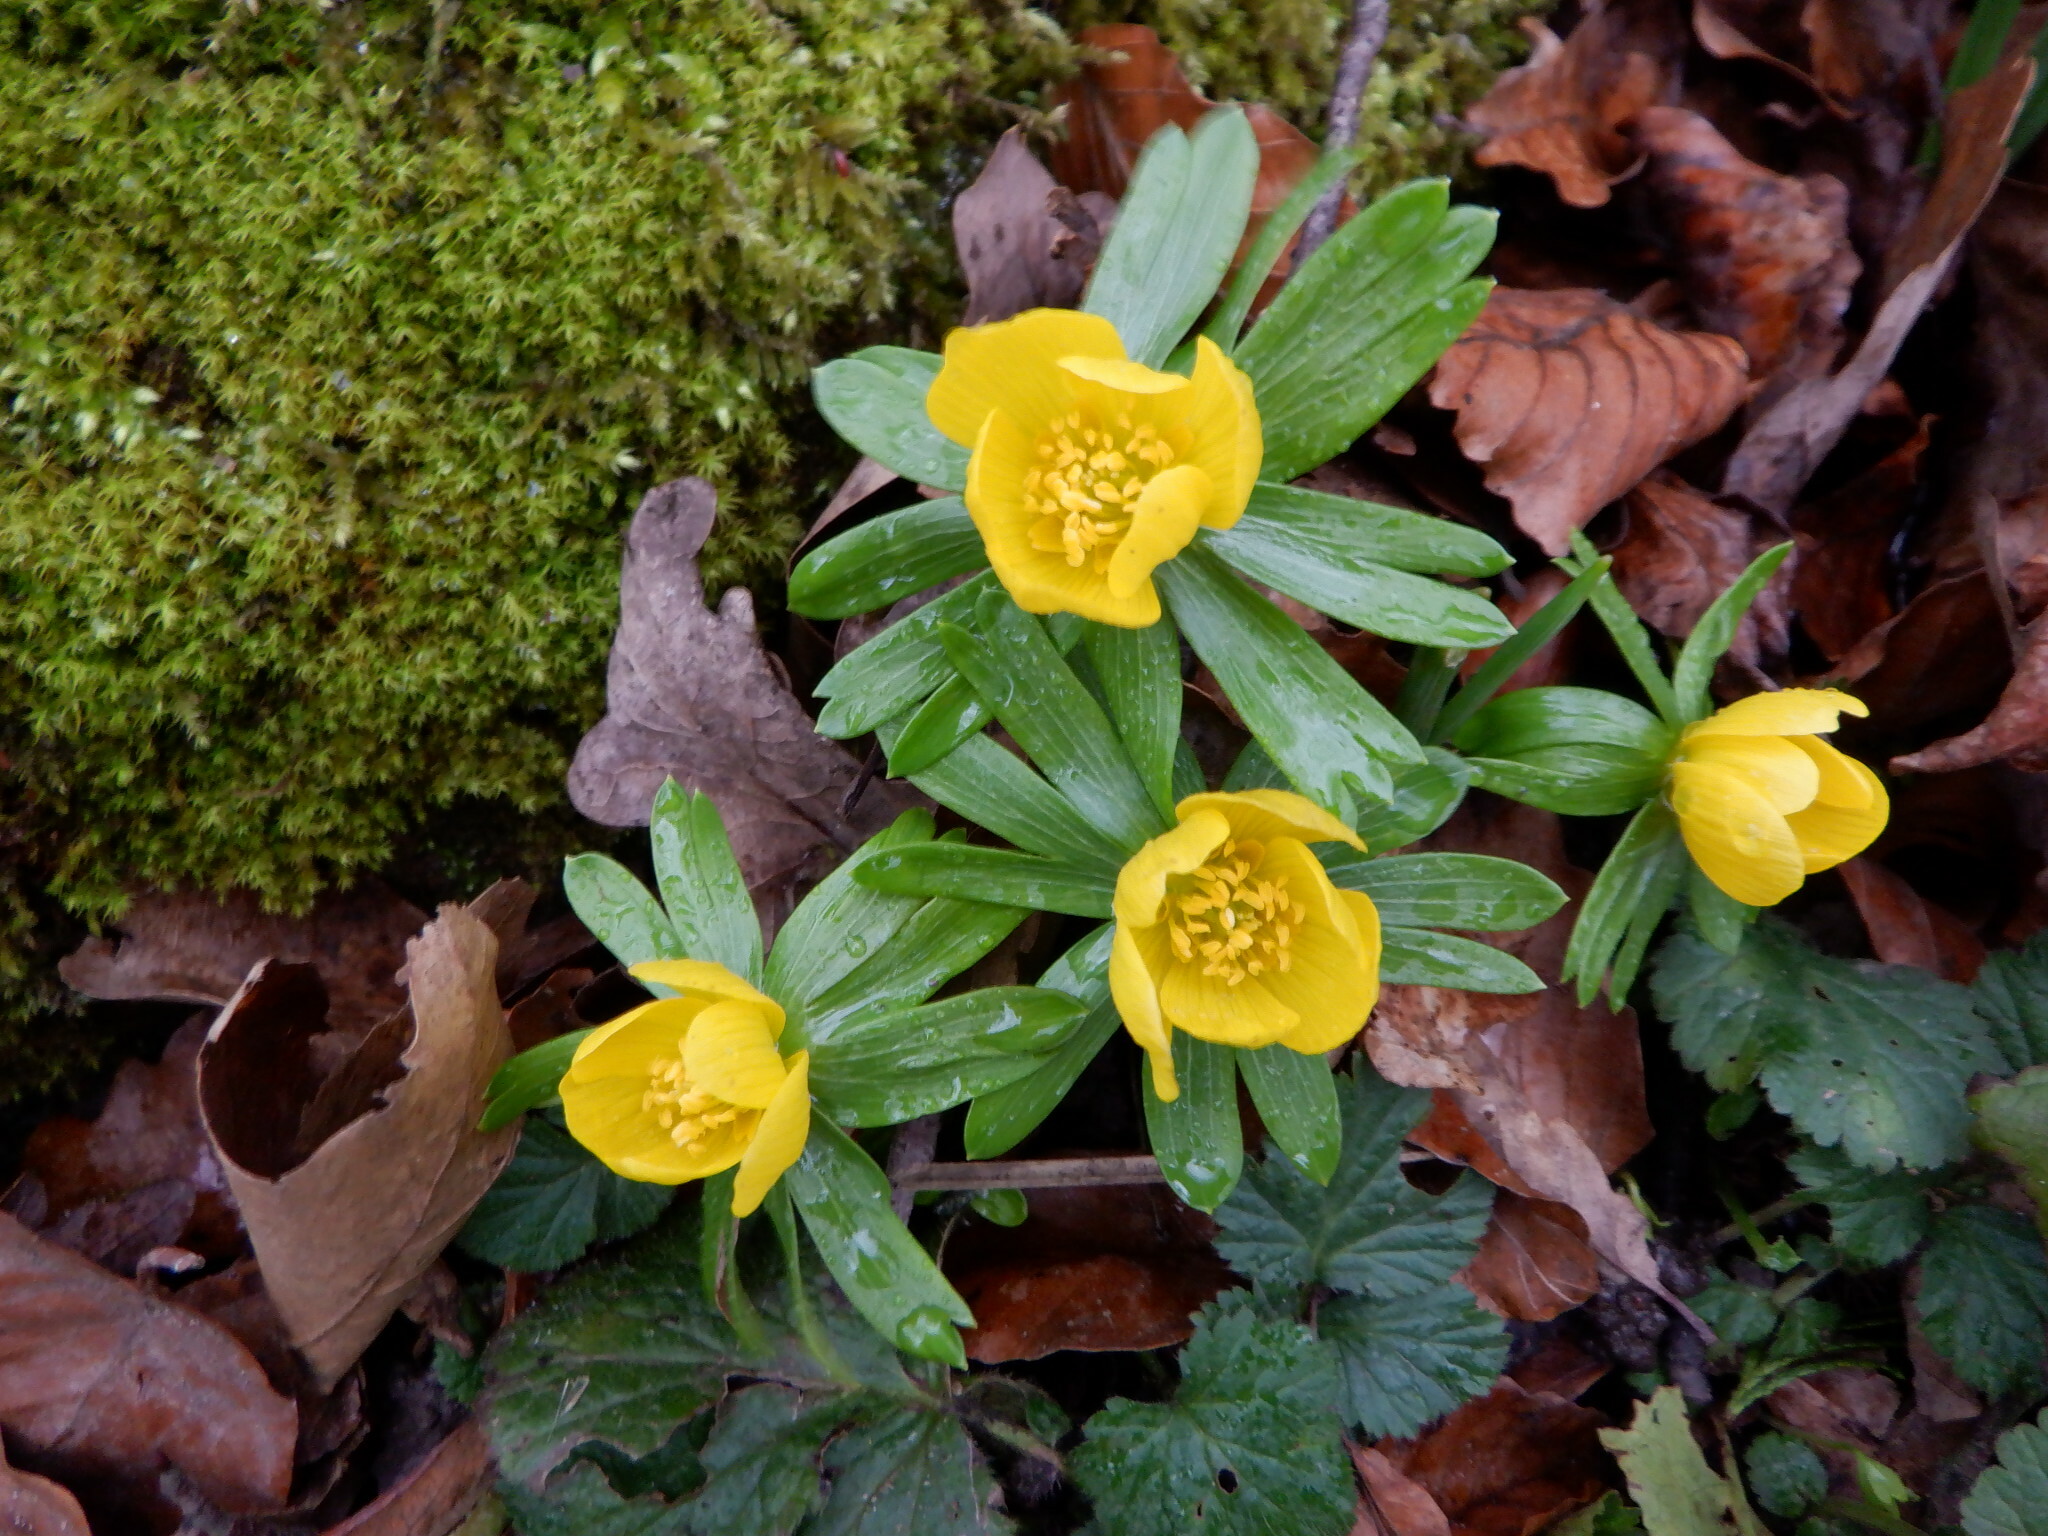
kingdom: Plantae
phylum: Tracheophyta
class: Magnoliopsida
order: Ranunculales
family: Ranunculaceae
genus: Eranthis
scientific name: Eranthis hyemalis
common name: Winter aconite
